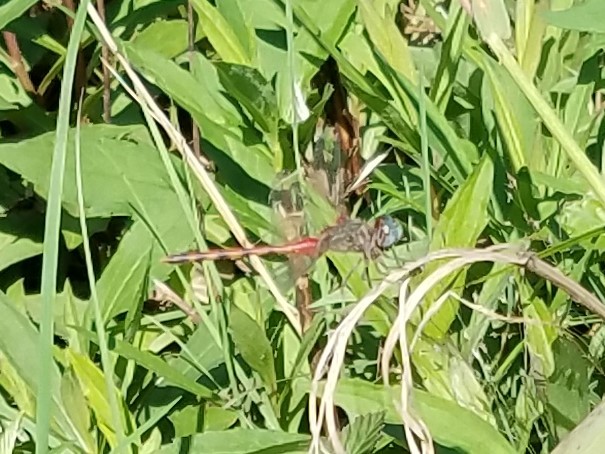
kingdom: Animalia
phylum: Arthropoda
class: Insecta
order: Odonata
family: Libellulidae
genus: Sympetrum
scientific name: Sympetrum ambiguum
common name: Blue-faced meadowhawk
